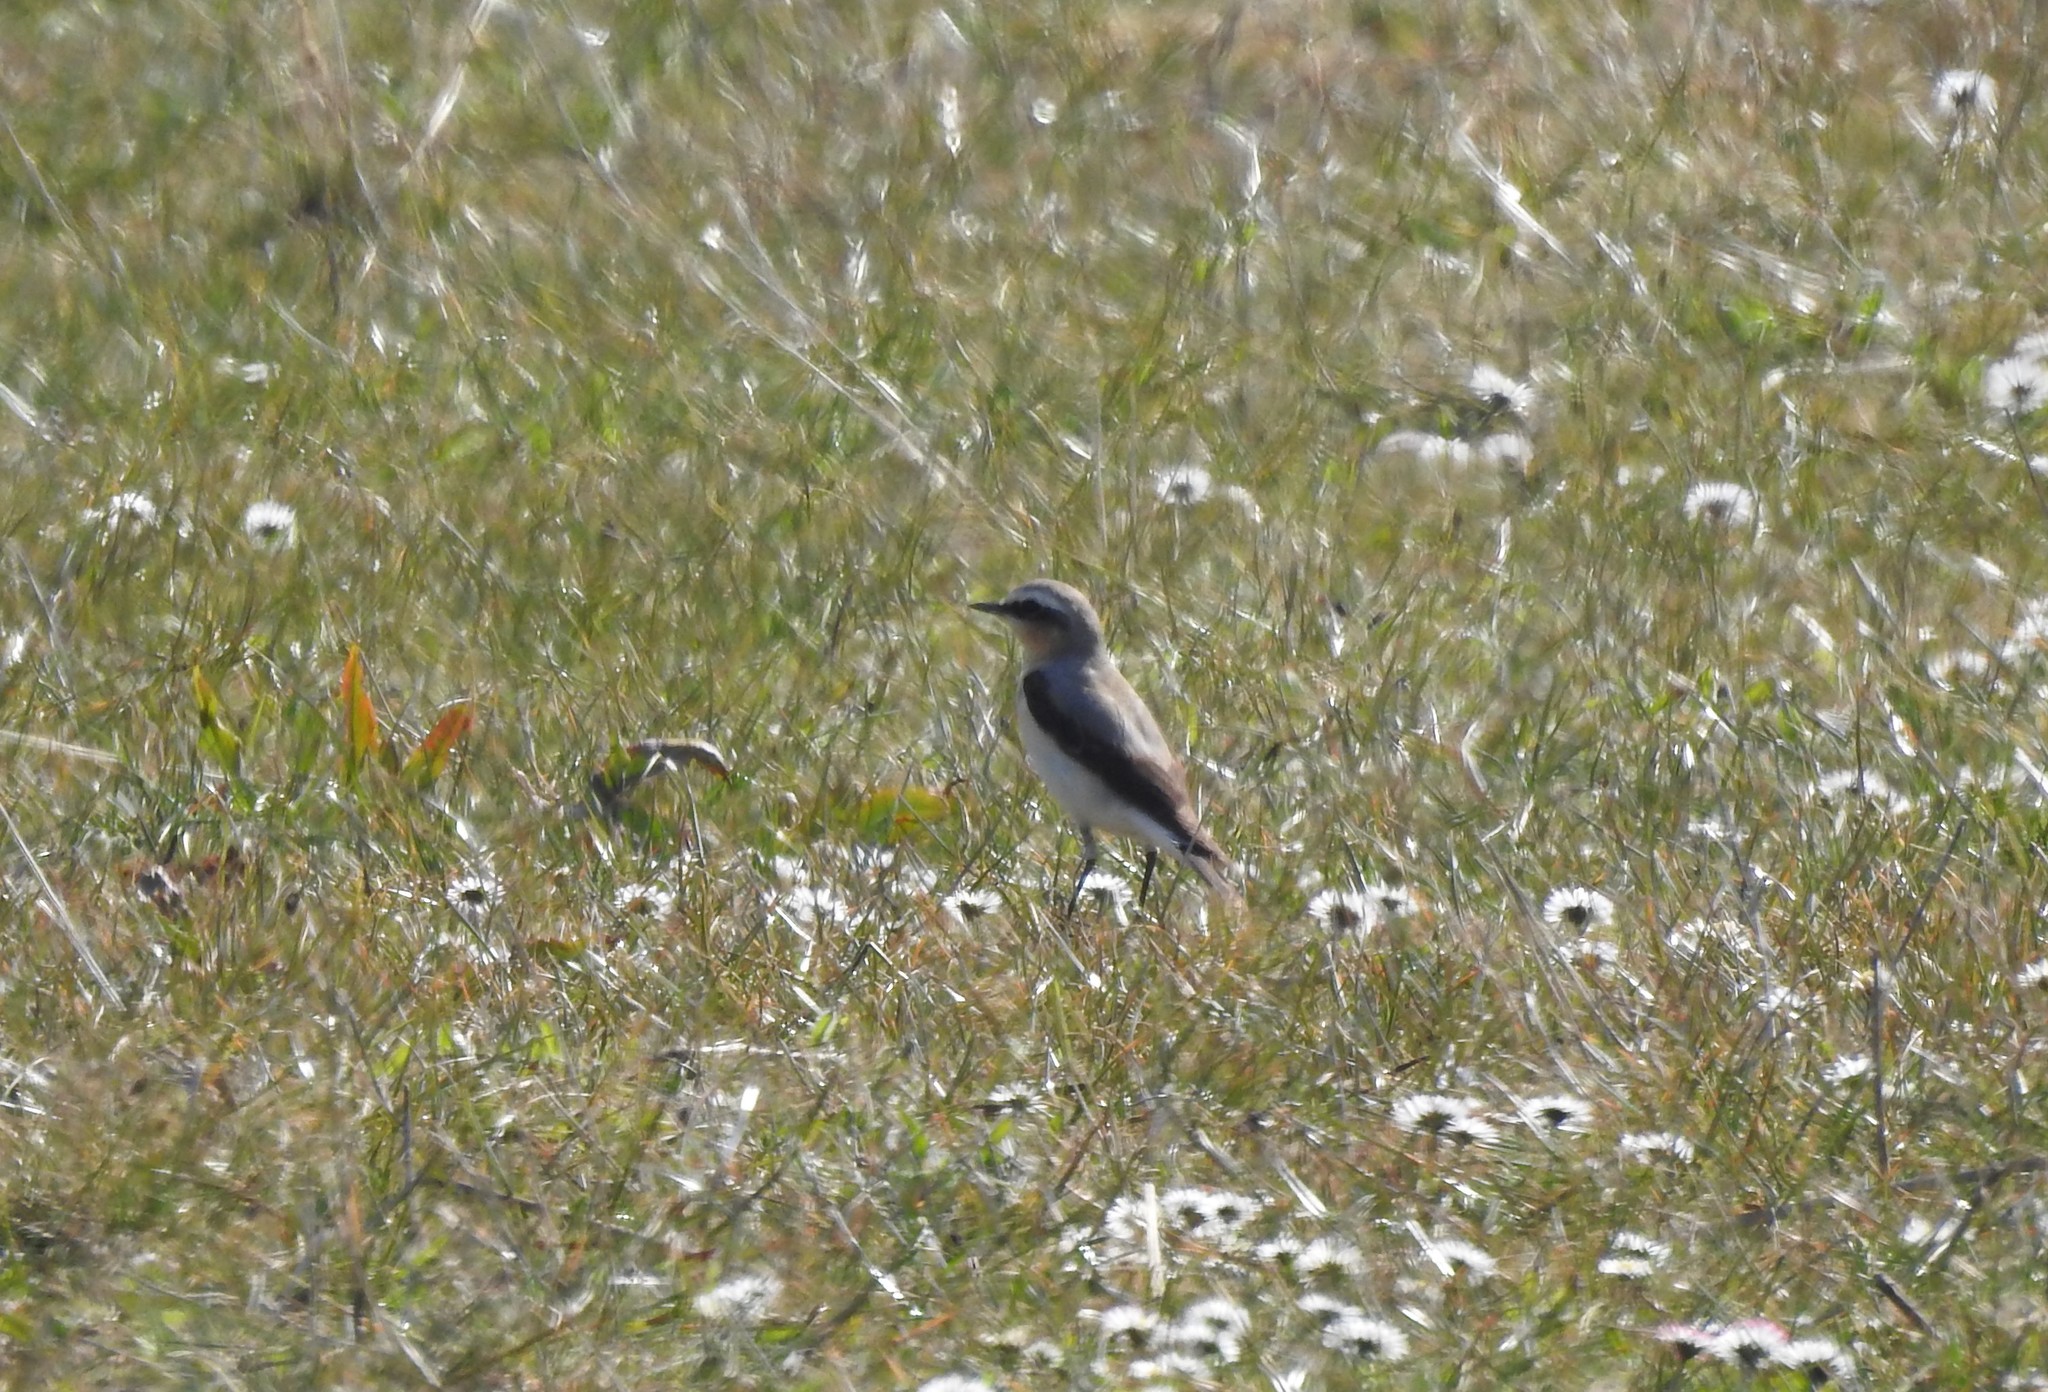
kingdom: Animalia
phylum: Chordata
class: Aves
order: Passeriformes
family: Muscicapidae
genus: Oenanthe
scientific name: Oenanthe oenanthe
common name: Northern wheatear
